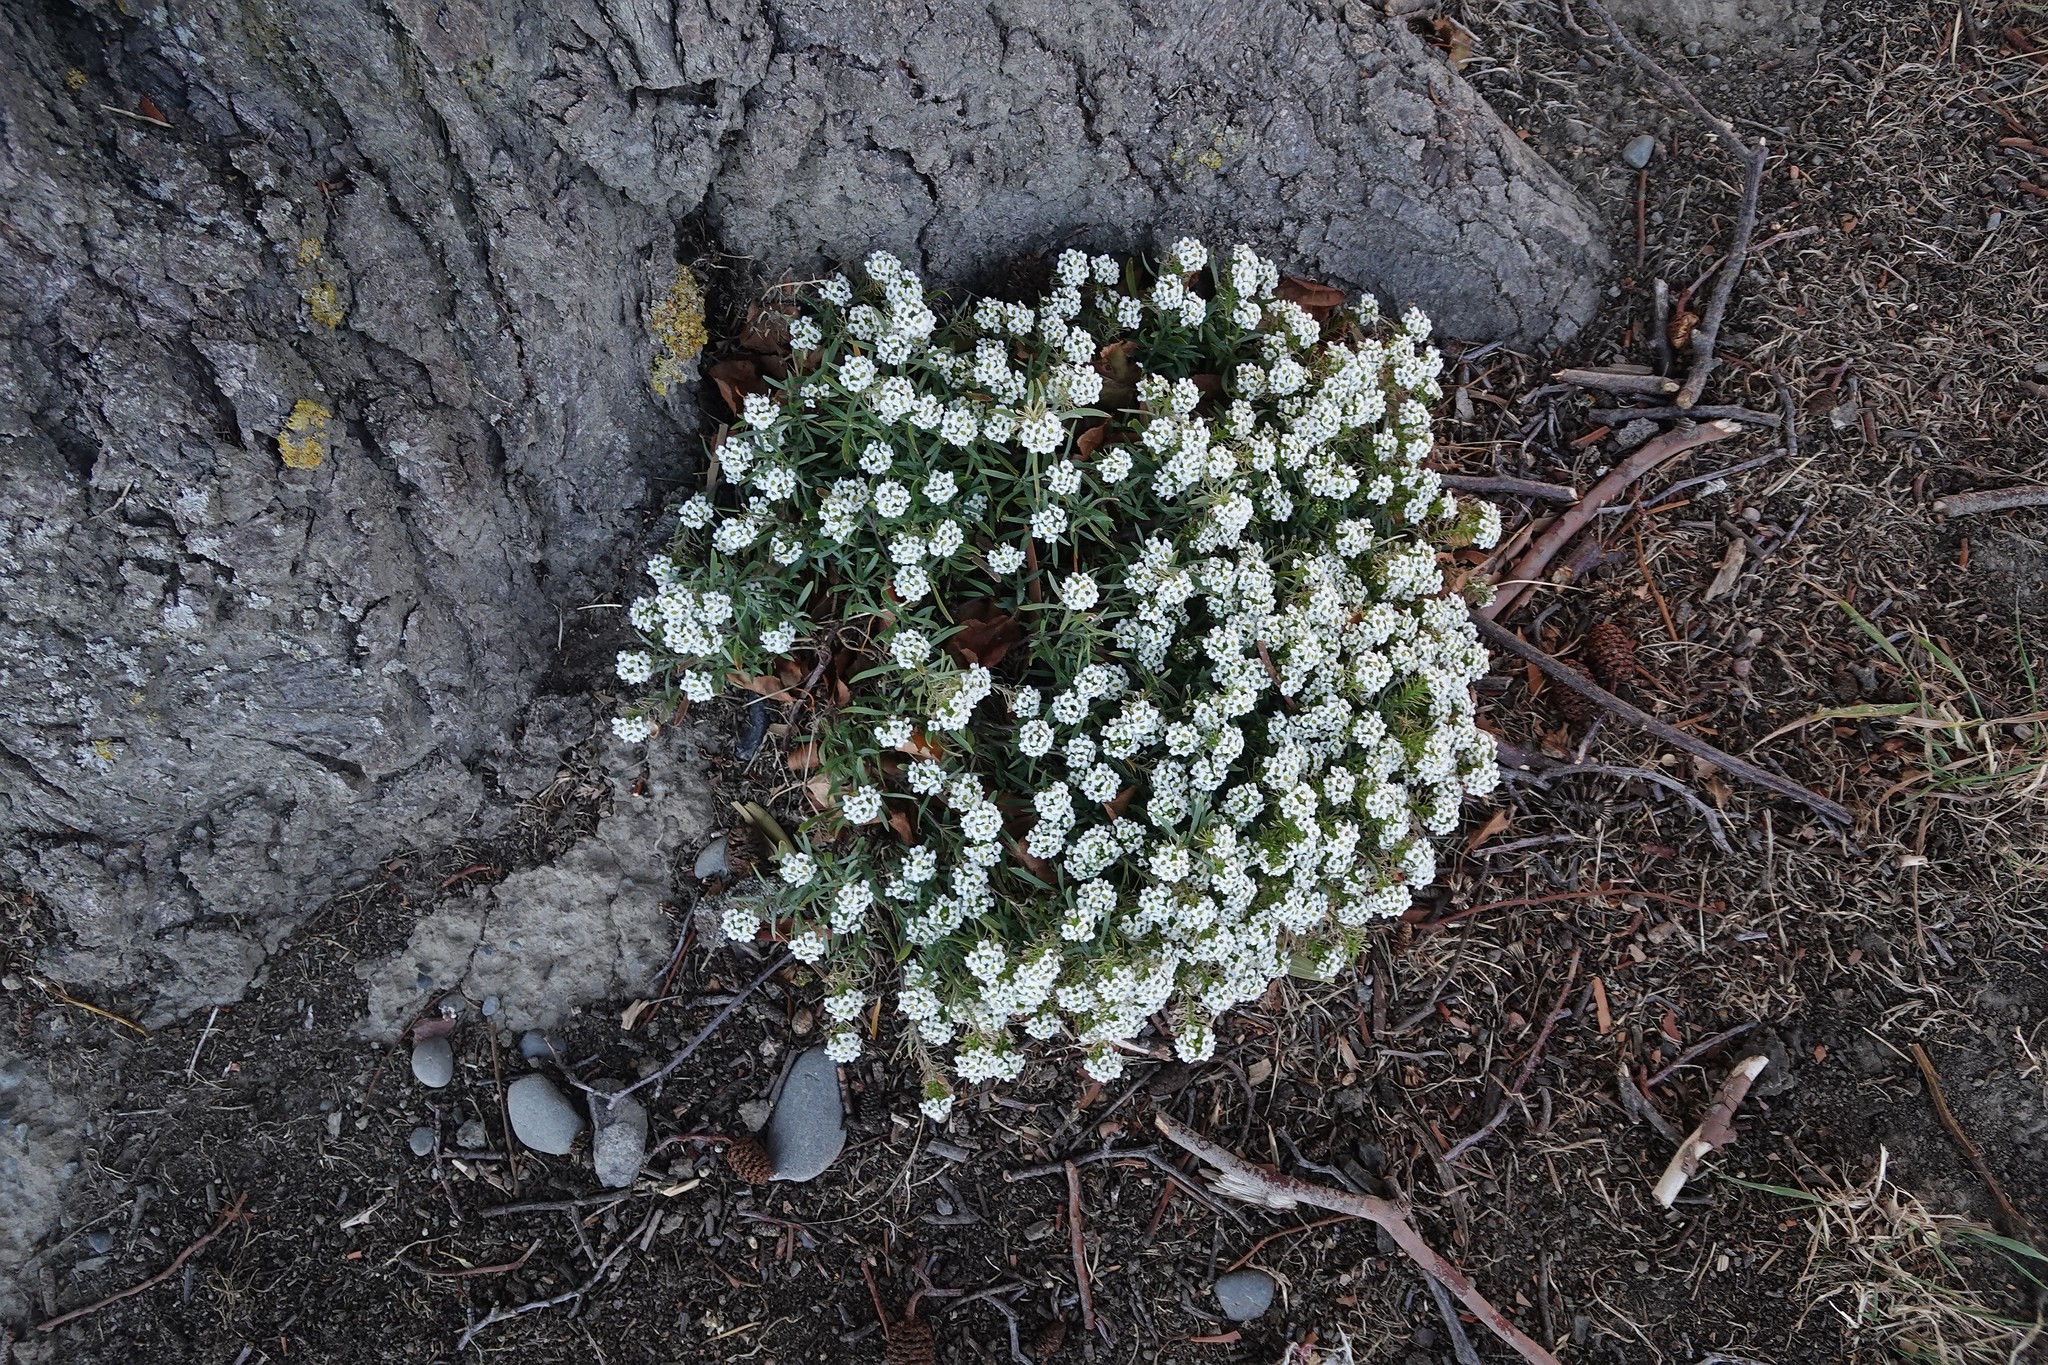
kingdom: Plantae
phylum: Tracheophyta
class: Magnoliopsida
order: Brassicales
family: Brassicaceae
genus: Lobularia
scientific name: Lobularia maritima
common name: Sweet alison
